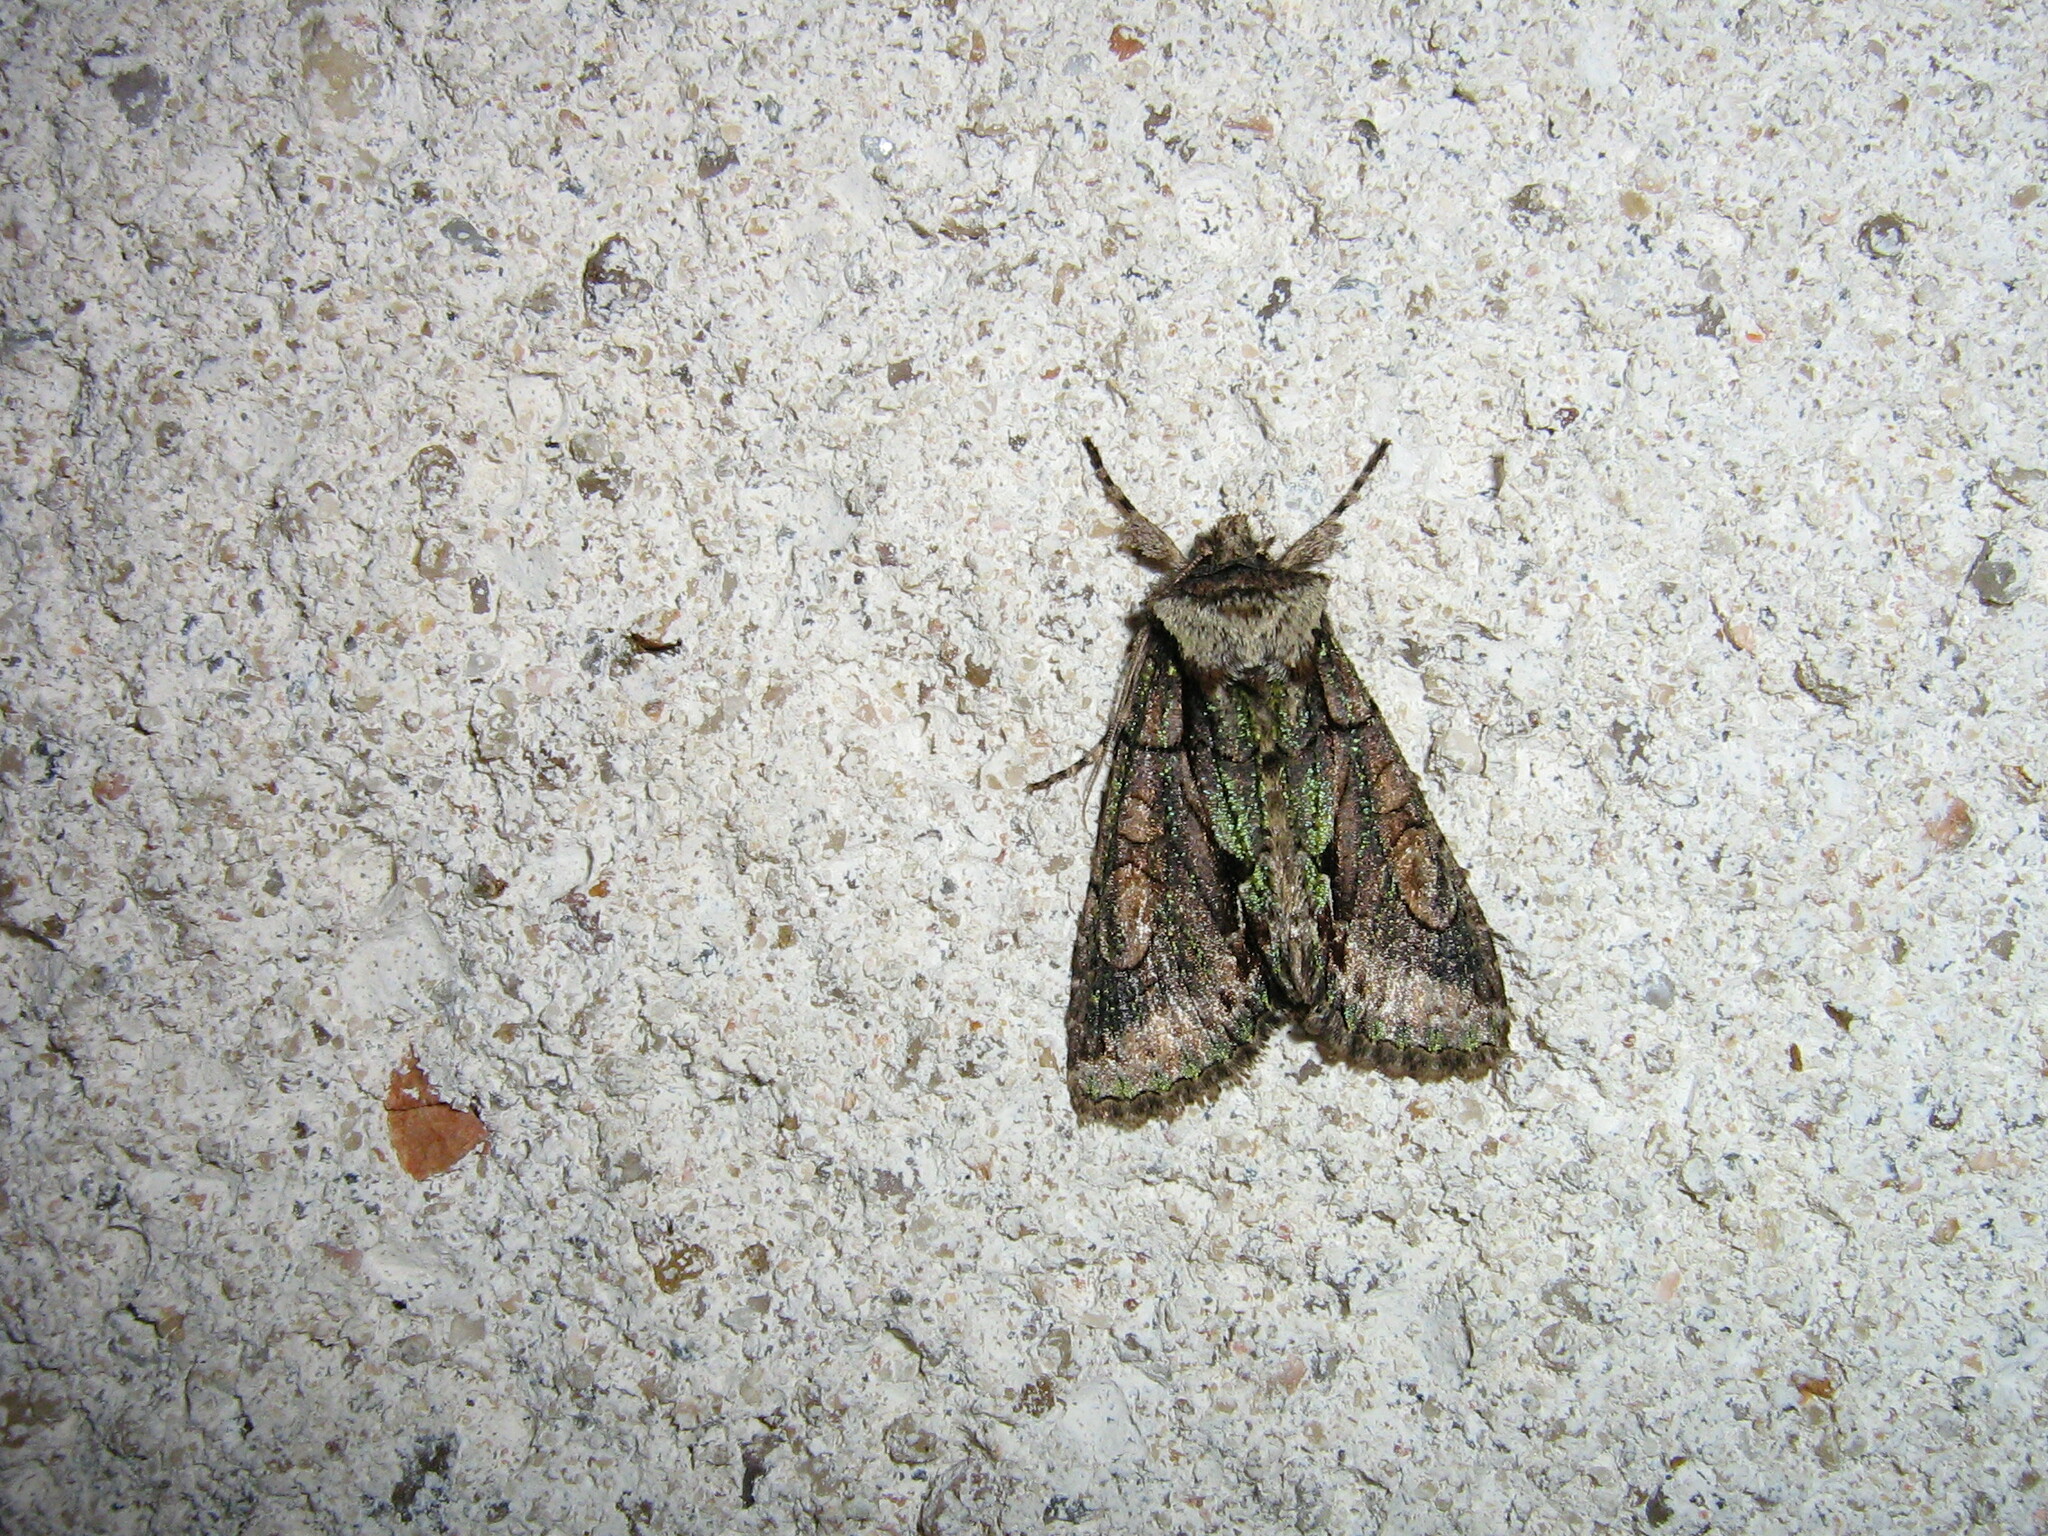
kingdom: Animalia
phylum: Arthropoda
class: Insecta
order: Lepidoptera
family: Noctuidae
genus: Allophyes
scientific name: Allophyes oxyacanthae
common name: Green-brindled crescent
